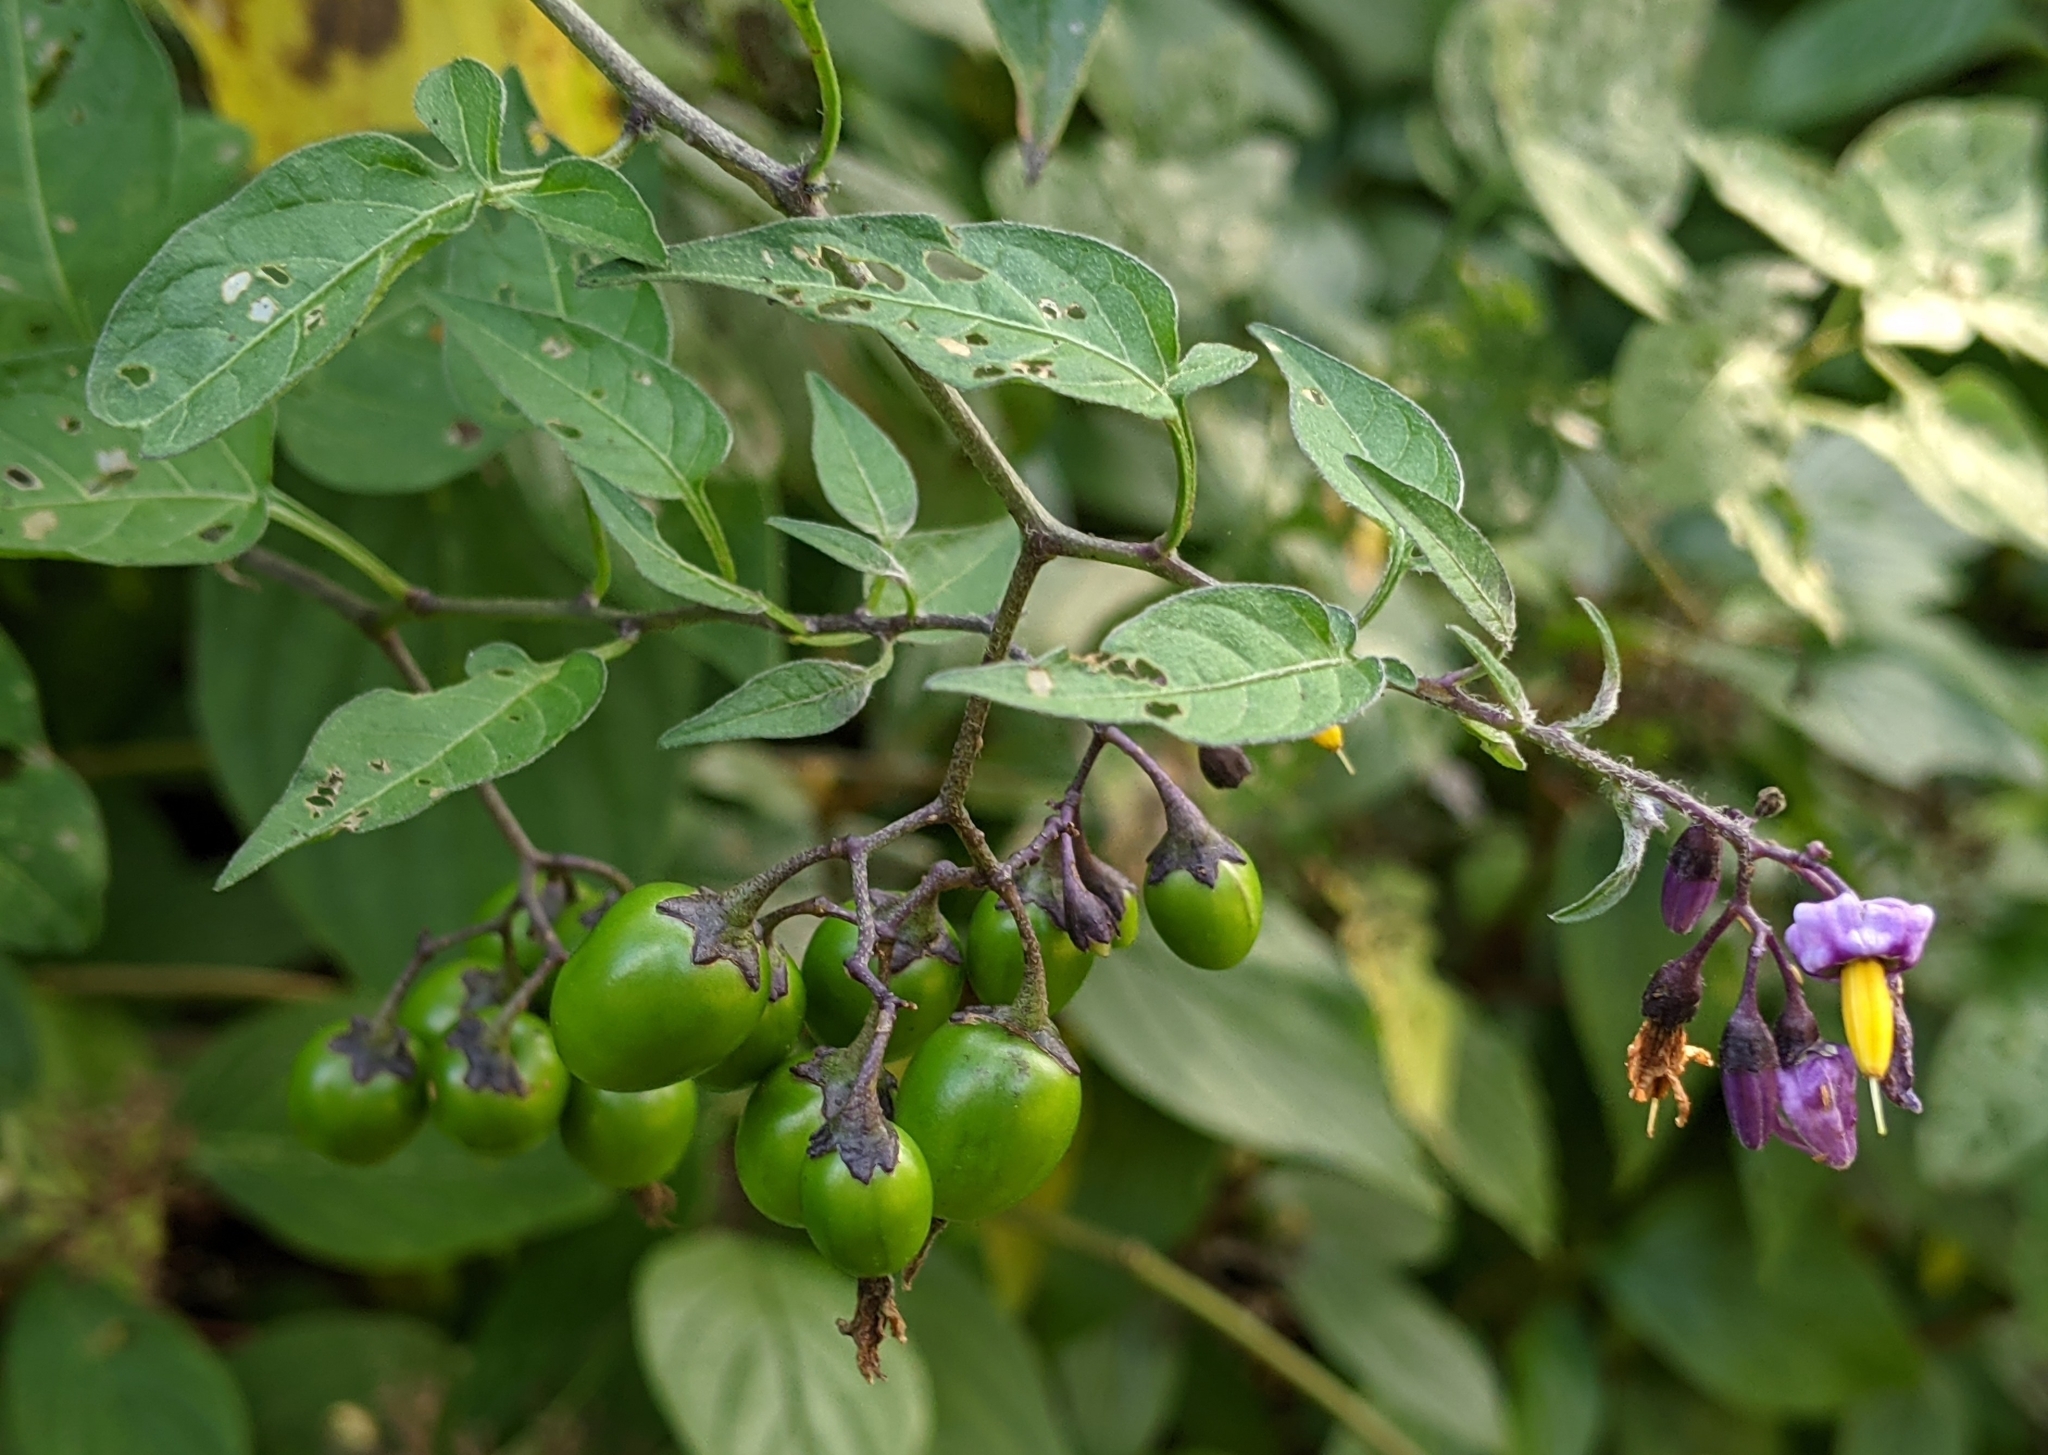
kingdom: Plantae
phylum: Tracheophyta
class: Magnoliopsida
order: Solanales
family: Solanaceae
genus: Solanum
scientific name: Solanum dulcamara
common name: Climbing nightshade
